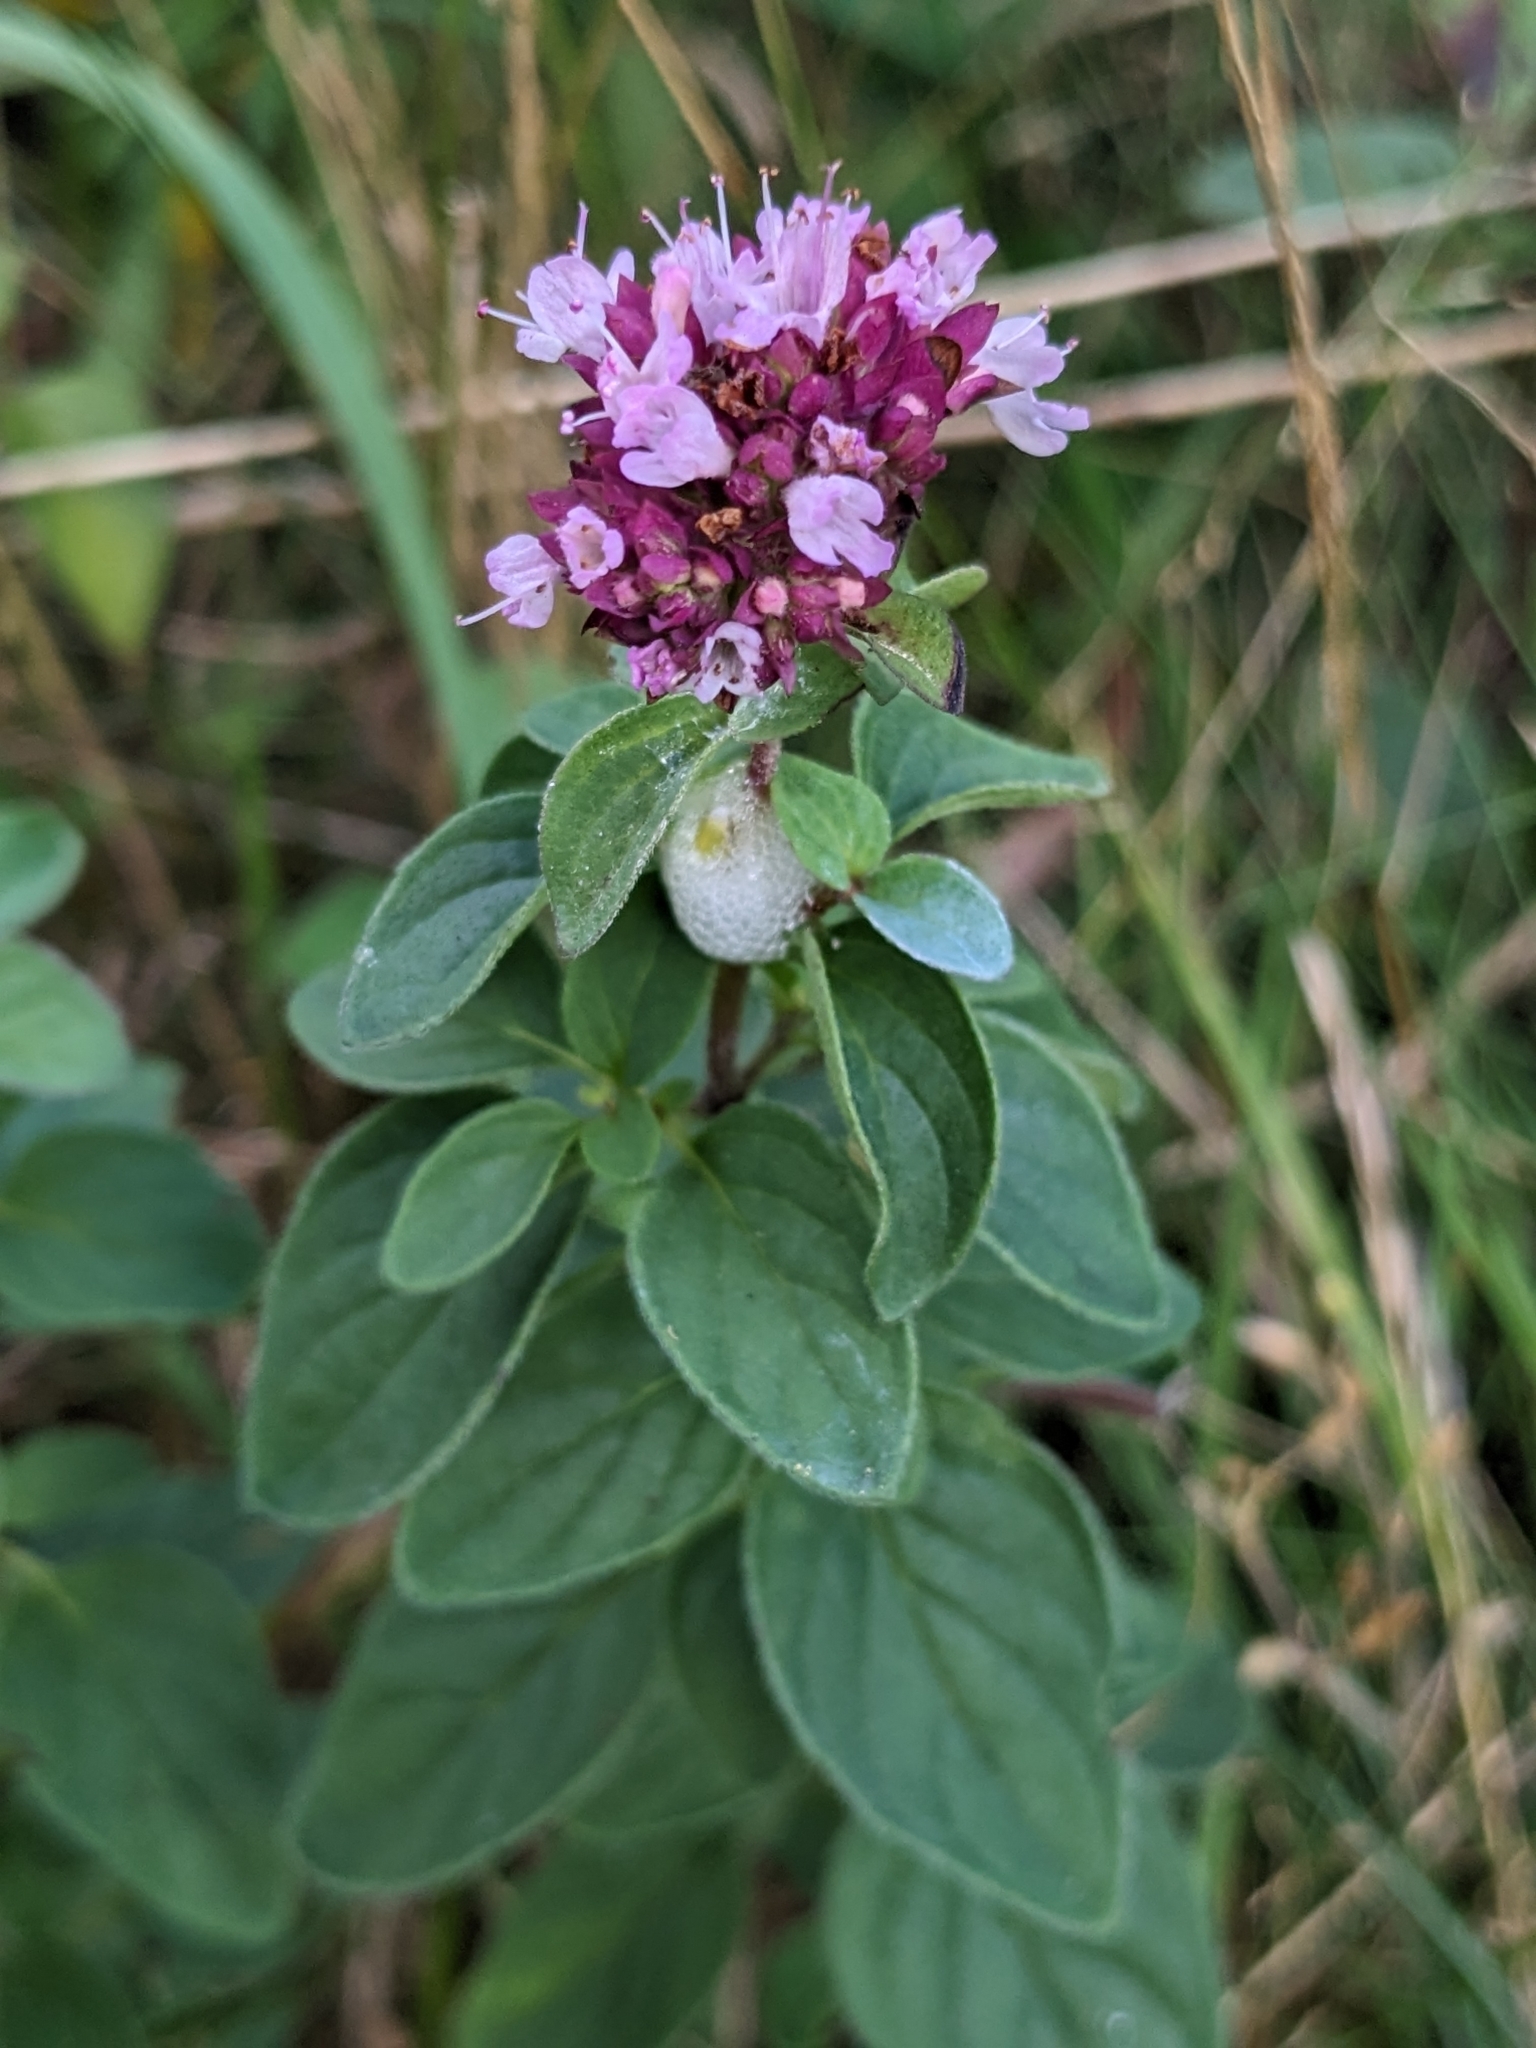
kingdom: Plantae
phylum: Tracheophyta
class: Magnoliopsida
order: Lamiales
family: Lamiaceae
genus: Origanum
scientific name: Origanum vulgare
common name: Wild marjoram
